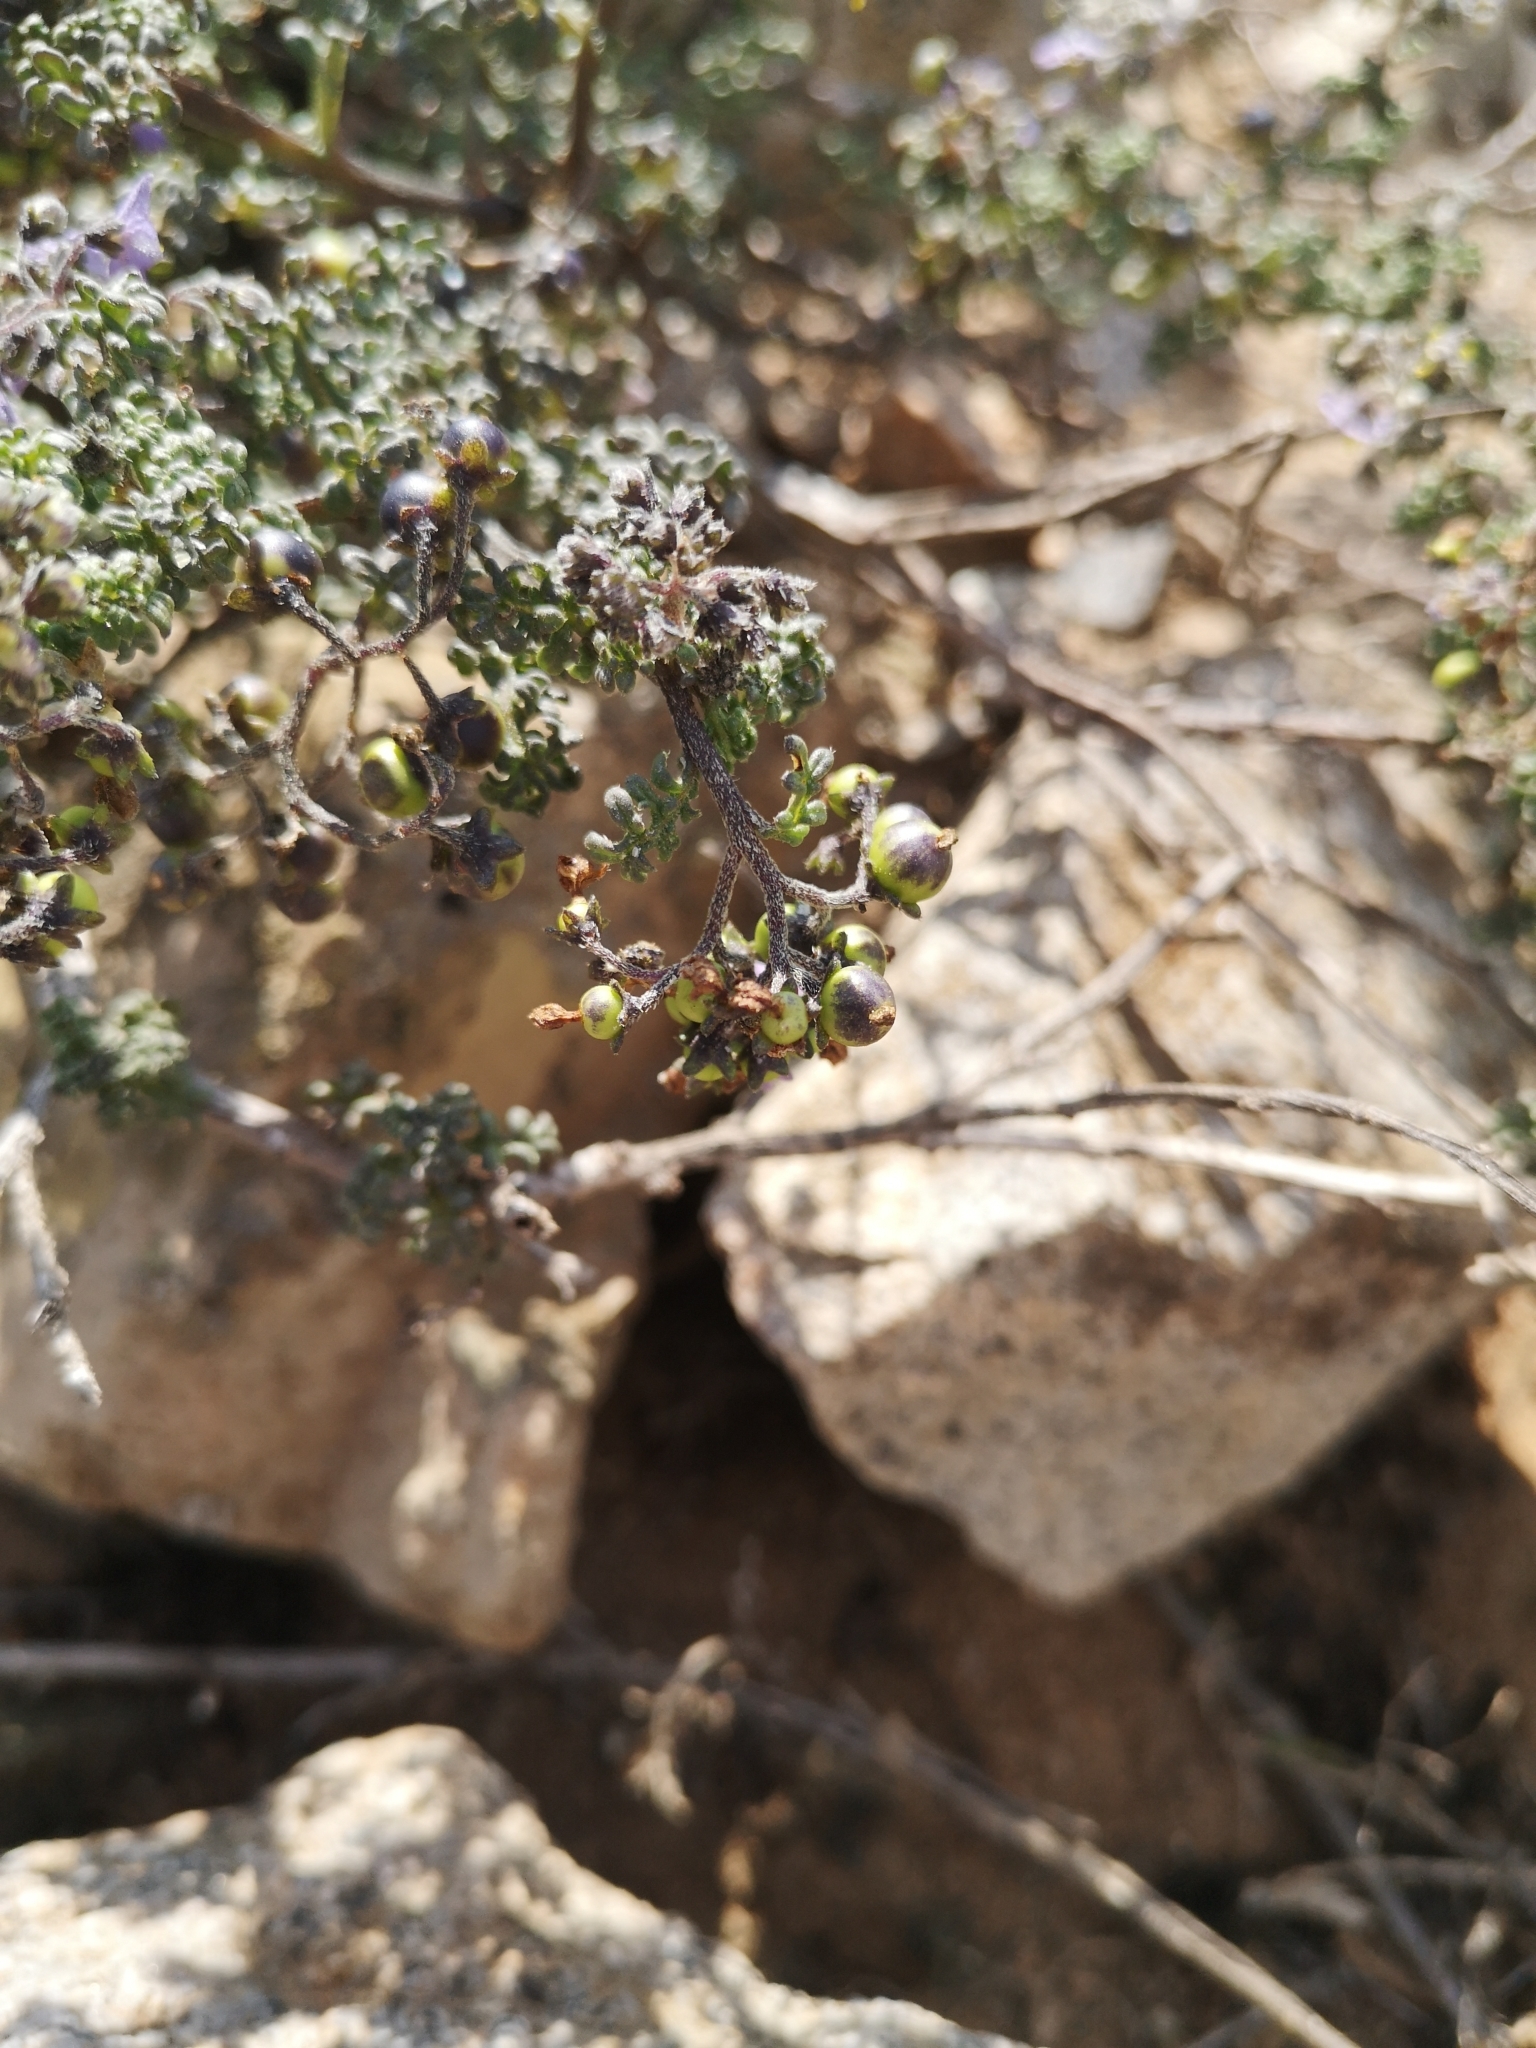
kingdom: Plantae
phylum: Tracheophyta
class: Magnoliopsida
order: Solanales
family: Solanaceae
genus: Solanum
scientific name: Solanum brachyantherum
